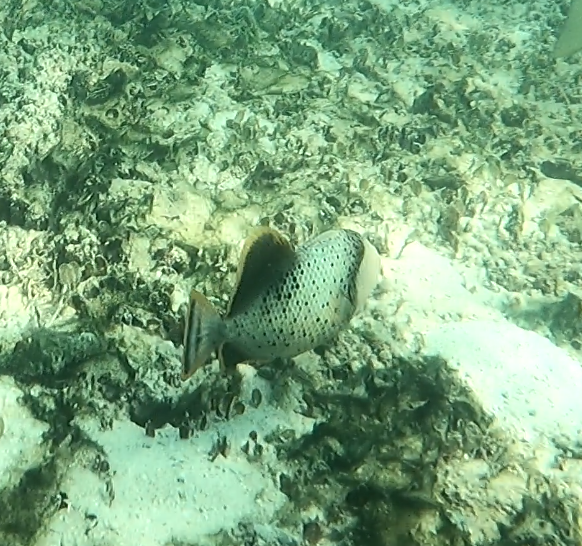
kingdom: Animalia
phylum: Chordata
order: Tetraodontiformes
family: Balistidae
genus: Pseudobalistes
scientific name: Pseudobalistes flavimarginatus
